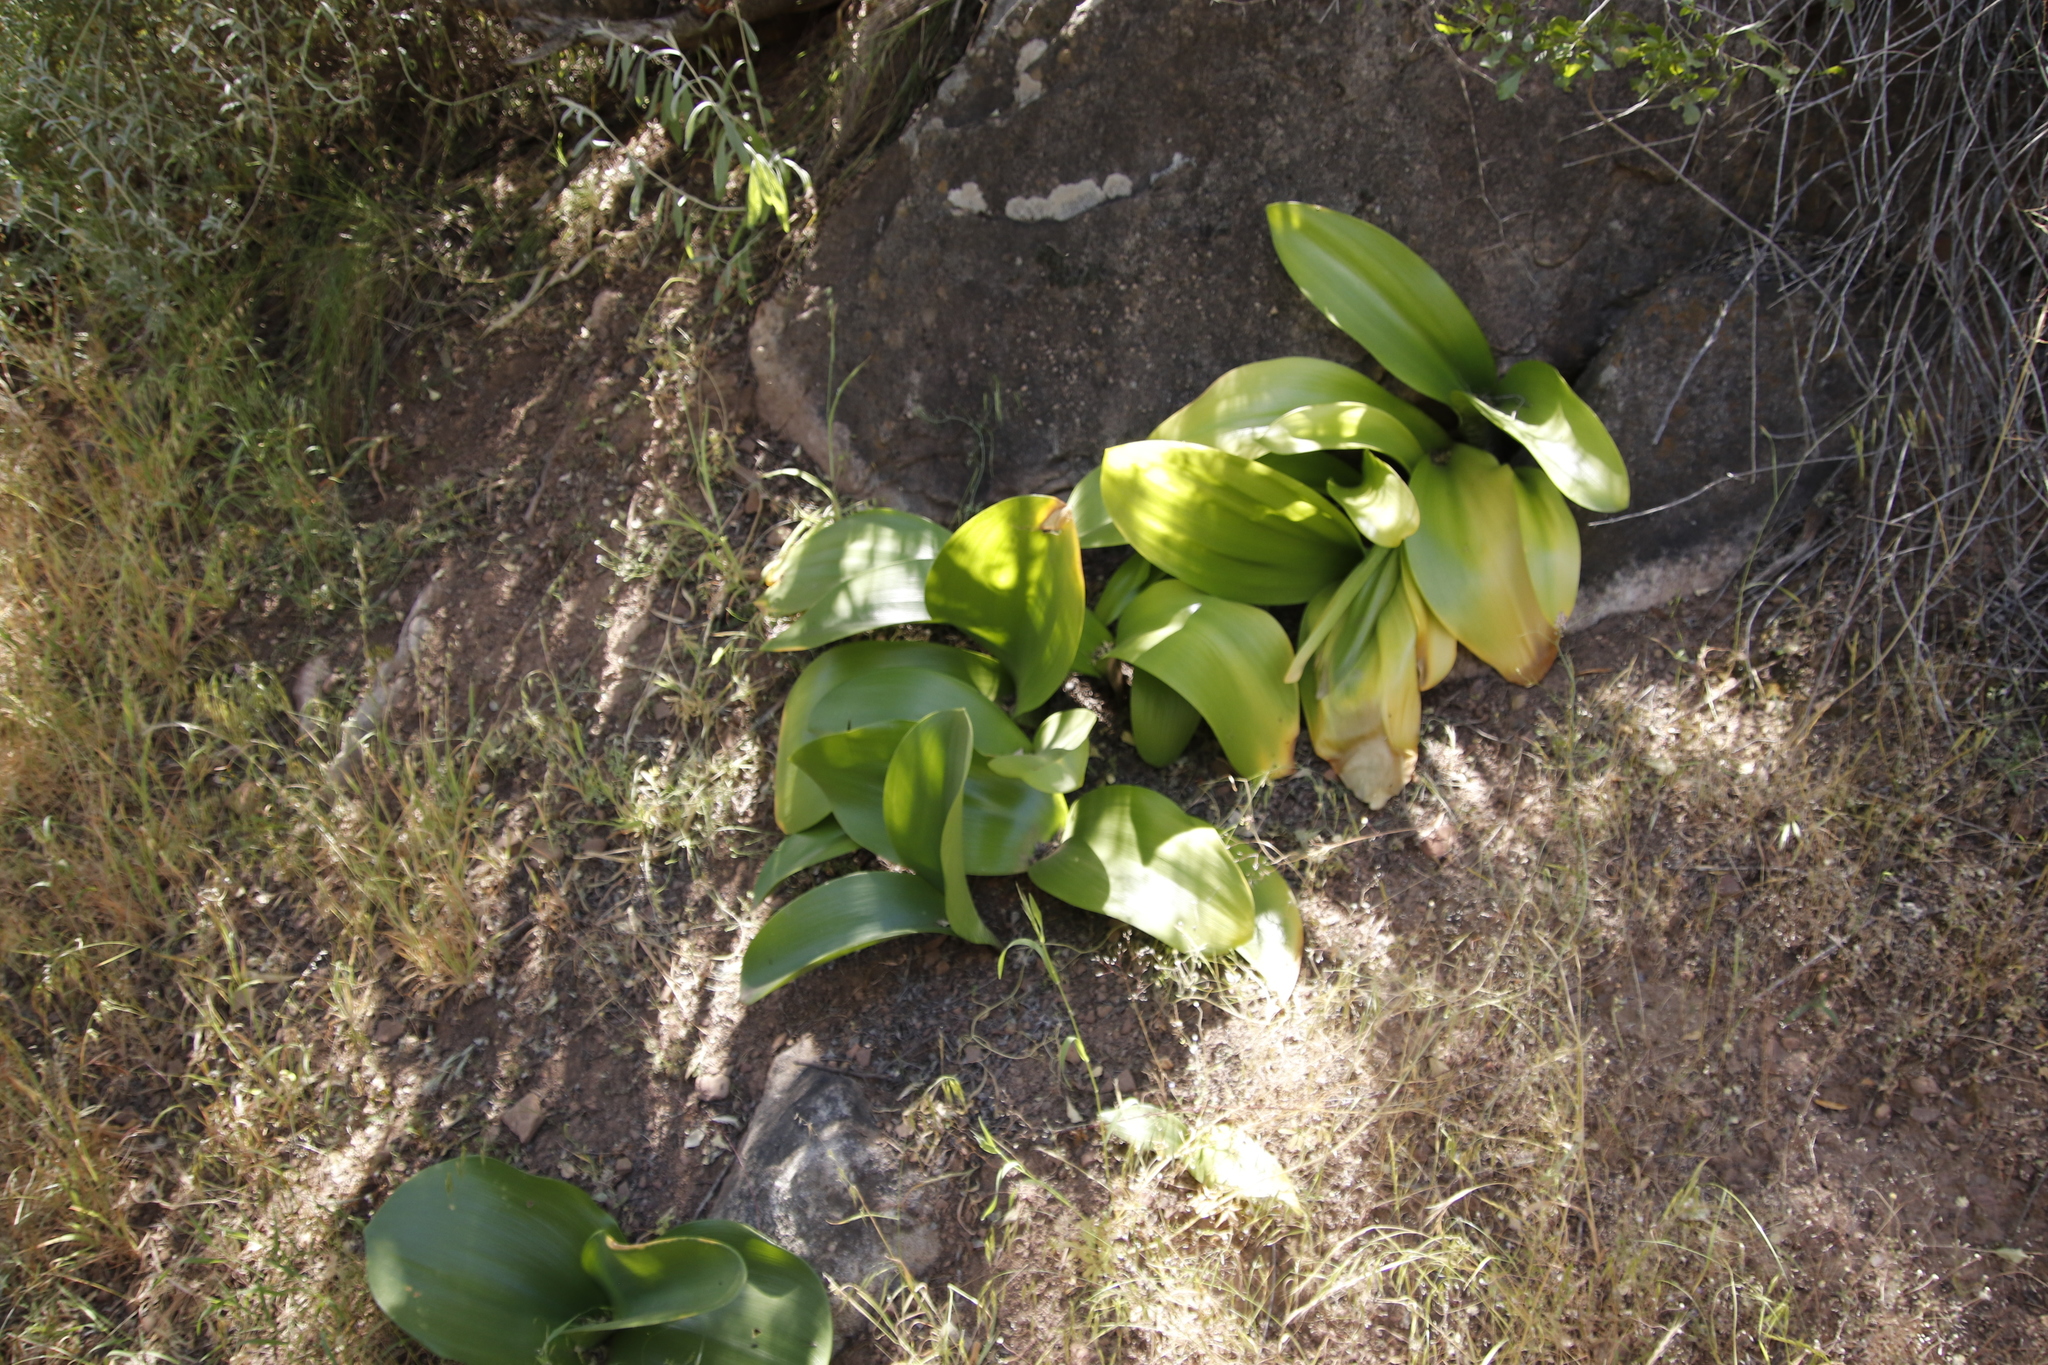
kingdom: Plantae
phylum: Tracheophyta
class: Liliopsida
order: Asparagales
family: Amaryllidaceae
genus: Haemanthus
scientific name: Haemanthus coccineus
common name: Cape-tulip
